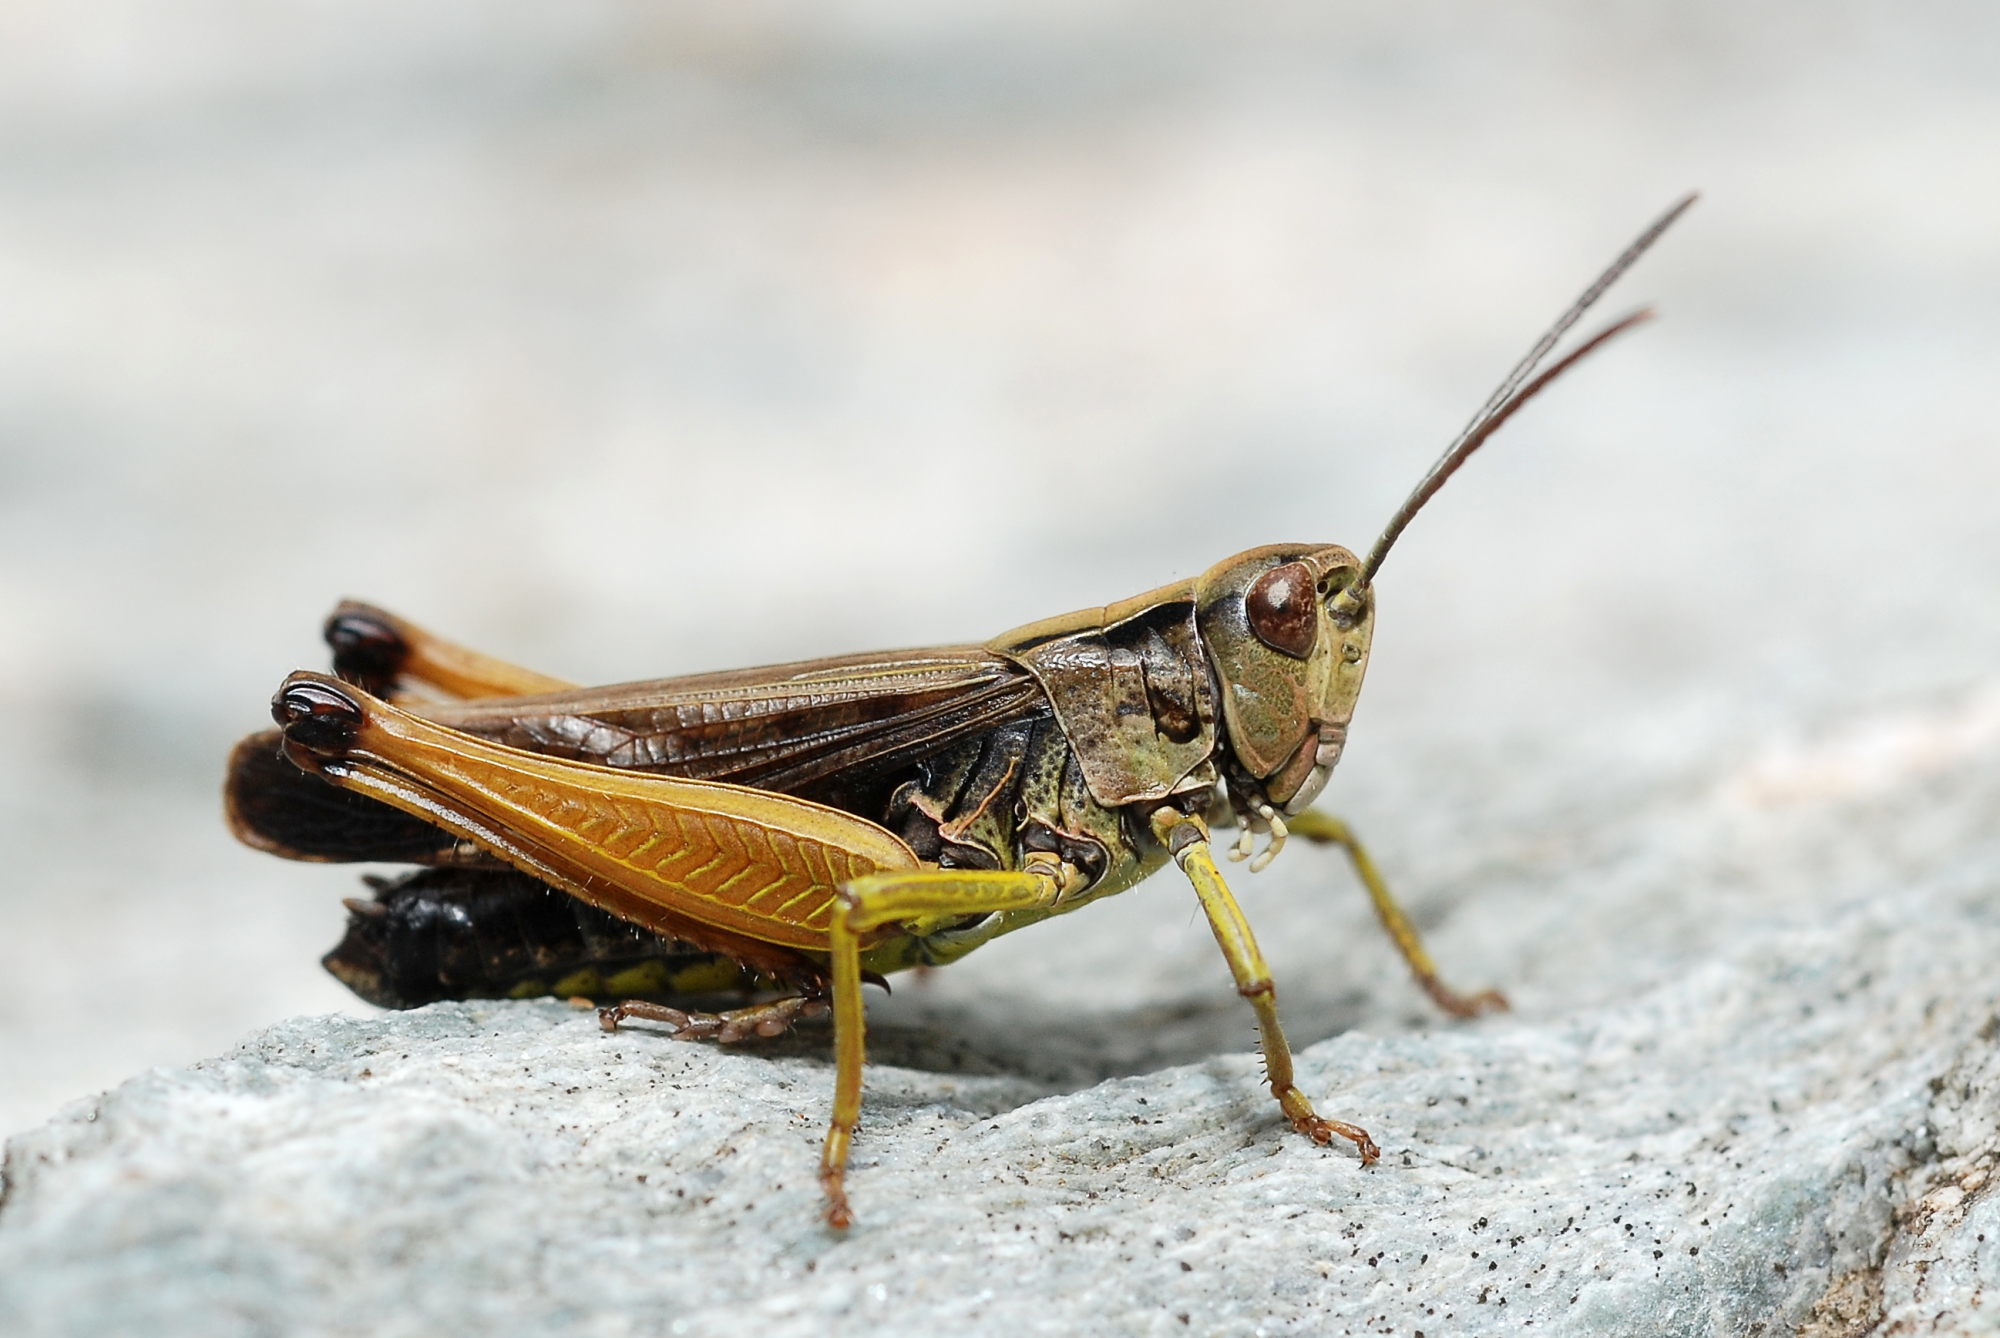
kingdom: Animalia
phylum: Arthropoda
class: Insecta
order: Orthoptera
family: Acrididae
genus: Omocestus
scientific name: Omocestus viridulus
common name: Common green grasshopper
